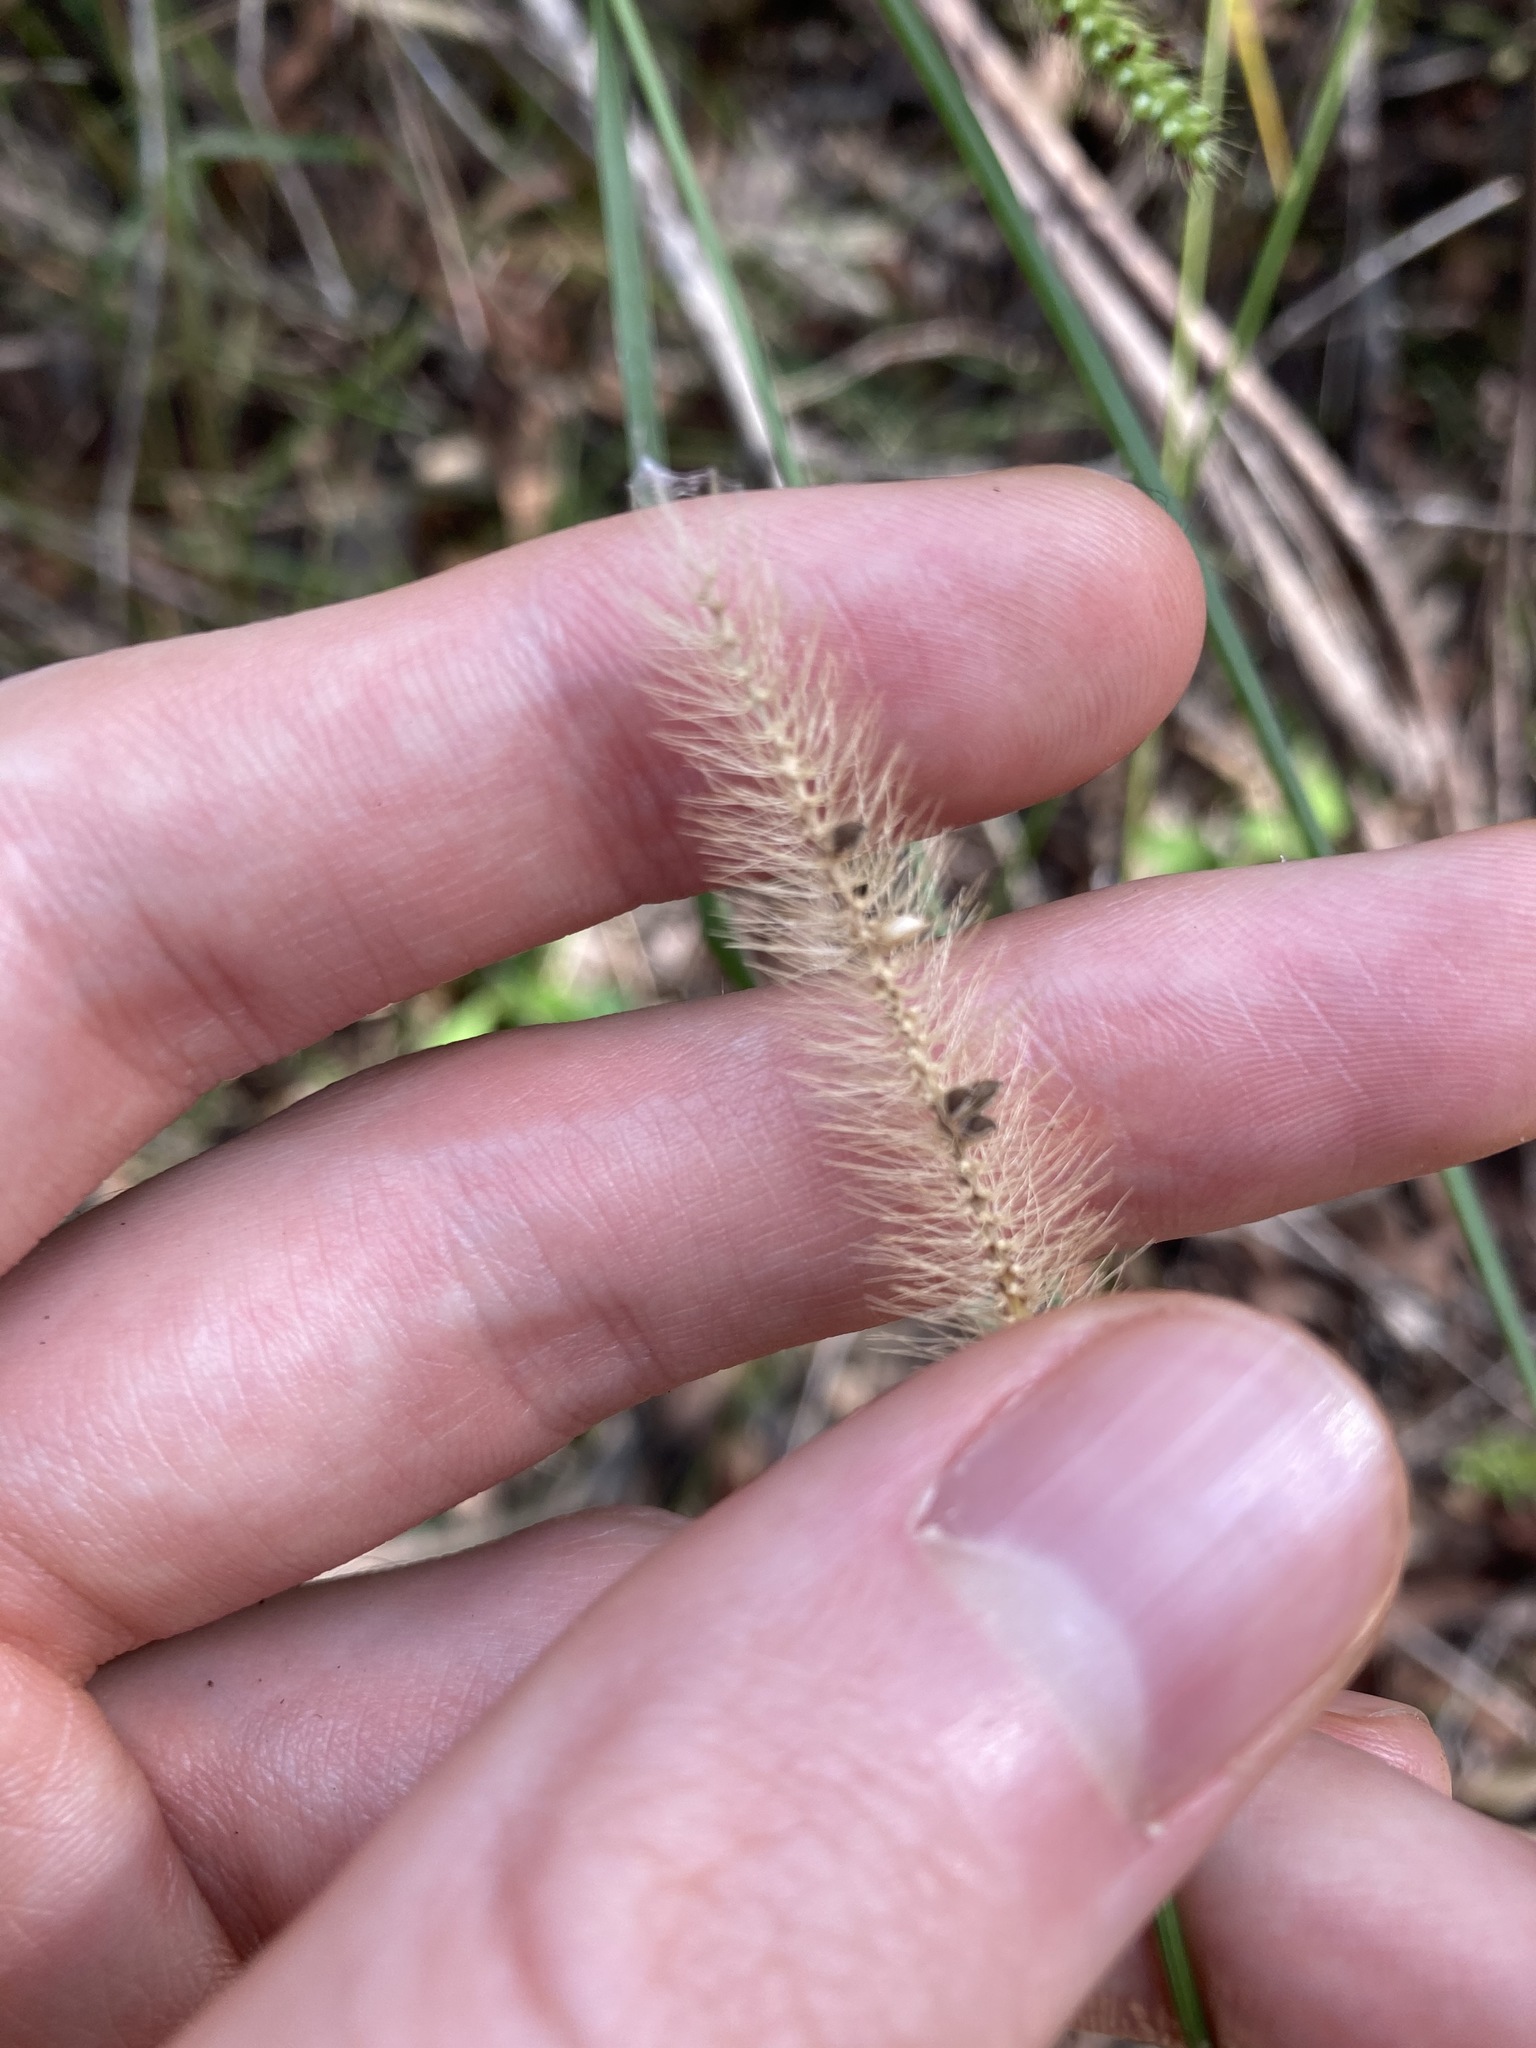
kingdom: Plantae
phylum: Tracheophyta
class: Liliopsida
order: Poales
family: Poaceae
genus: Setaria
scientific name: Setaria pumila
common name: Yellow bristle-grass
